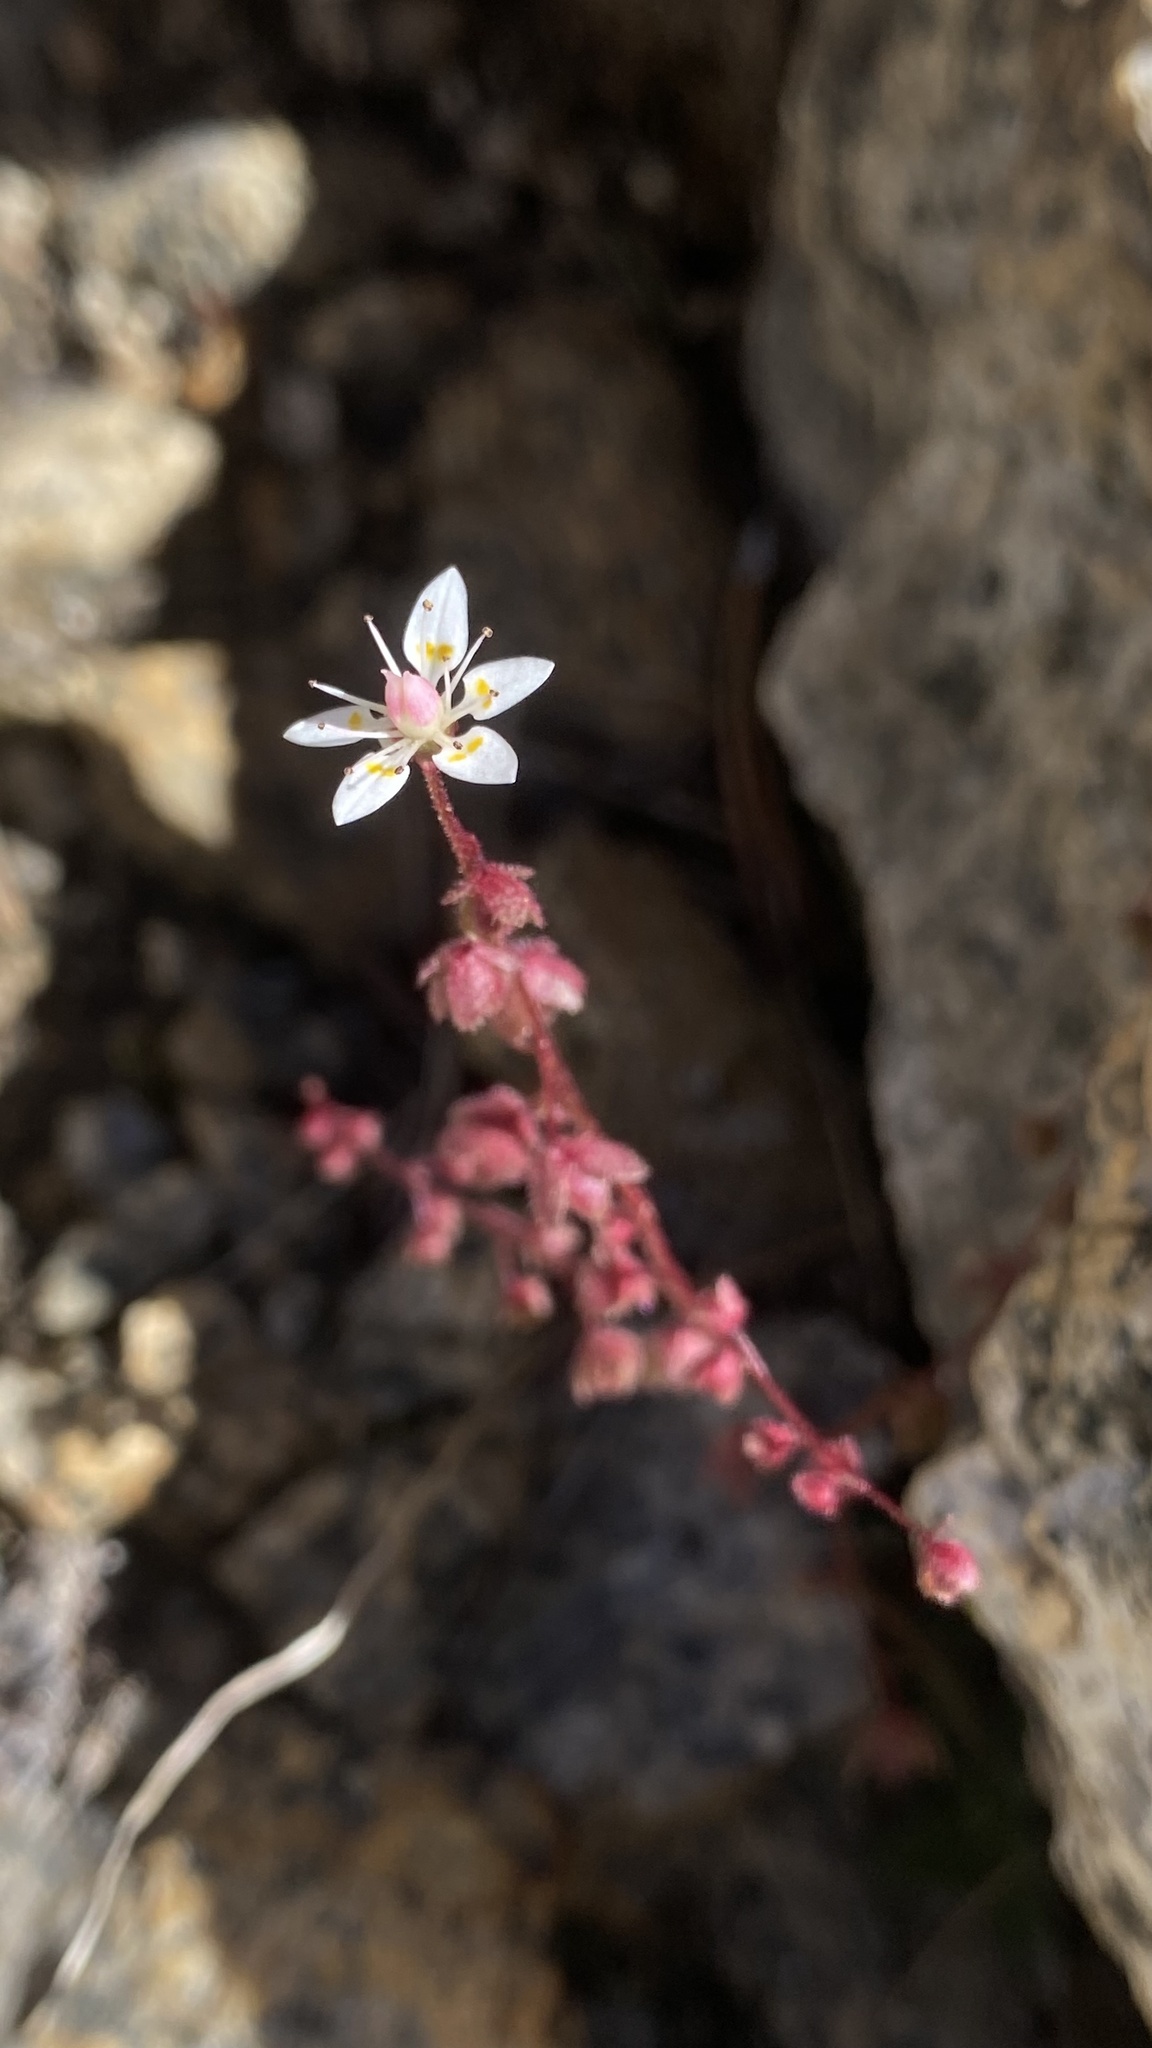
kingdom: Plantae
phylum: Tracheophyta
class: Magnoliopsida
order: Saxifragales
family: Saxifragaceae
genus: Micranthes
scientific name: Micranthes bryophora
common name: Bud saxifrage
